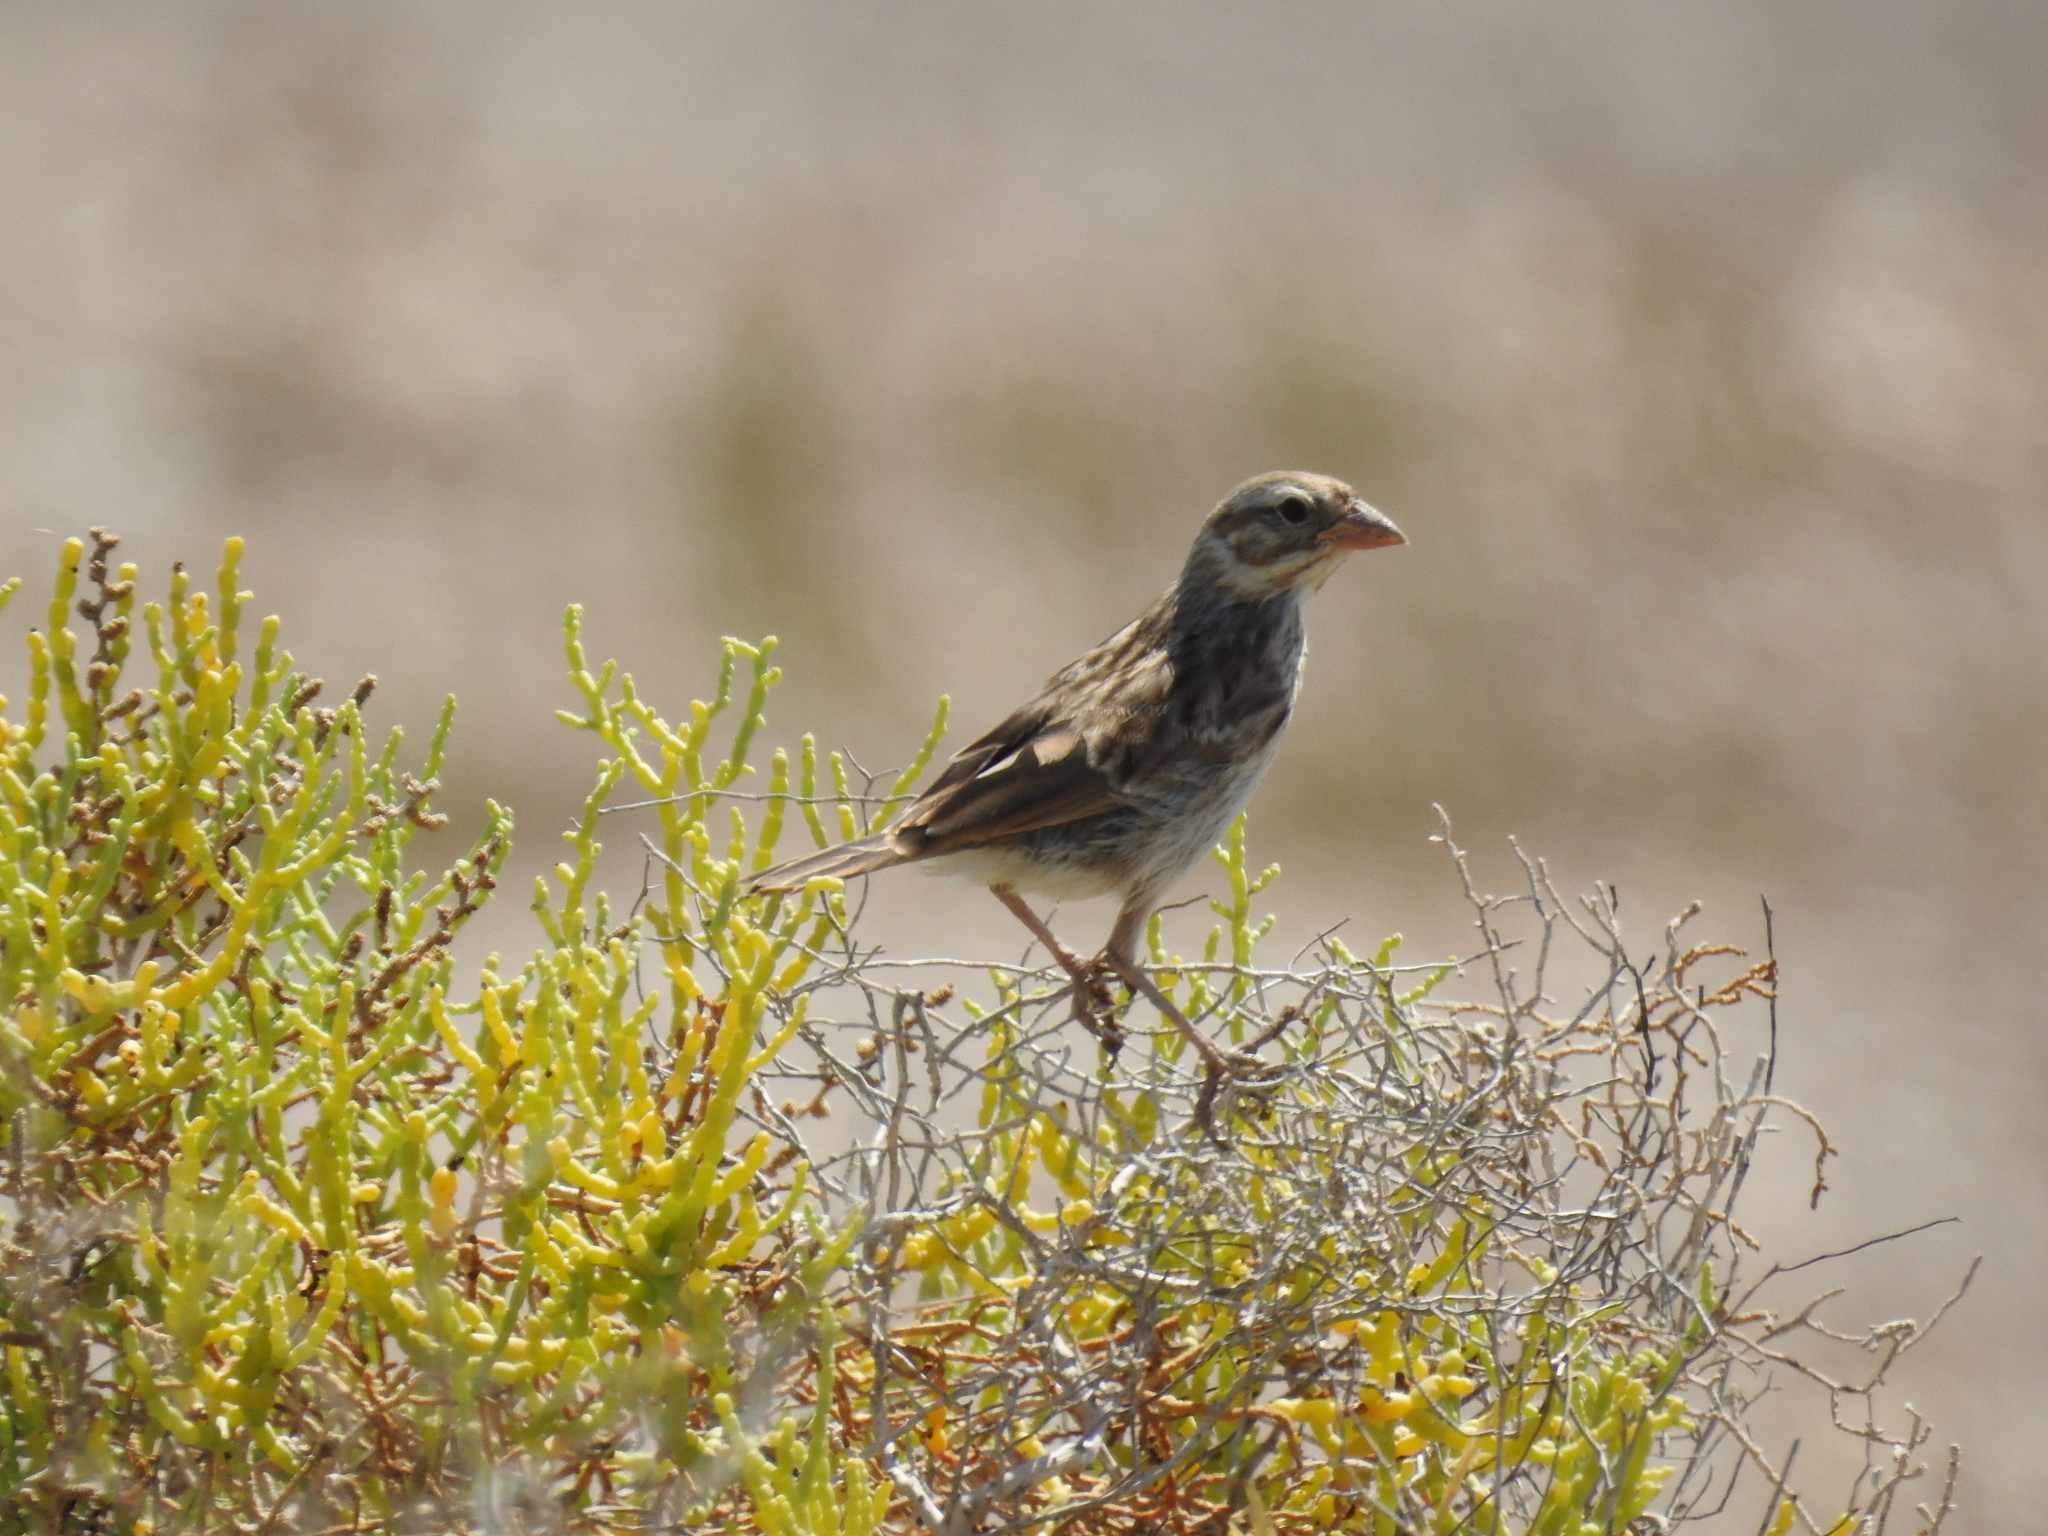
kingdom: Animalia
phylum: Chordata
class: Aves
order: Passeriformes
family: Passerellidae
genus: Passerculus
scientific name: Passerculus sandwichensis
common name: Savannah sparrow
